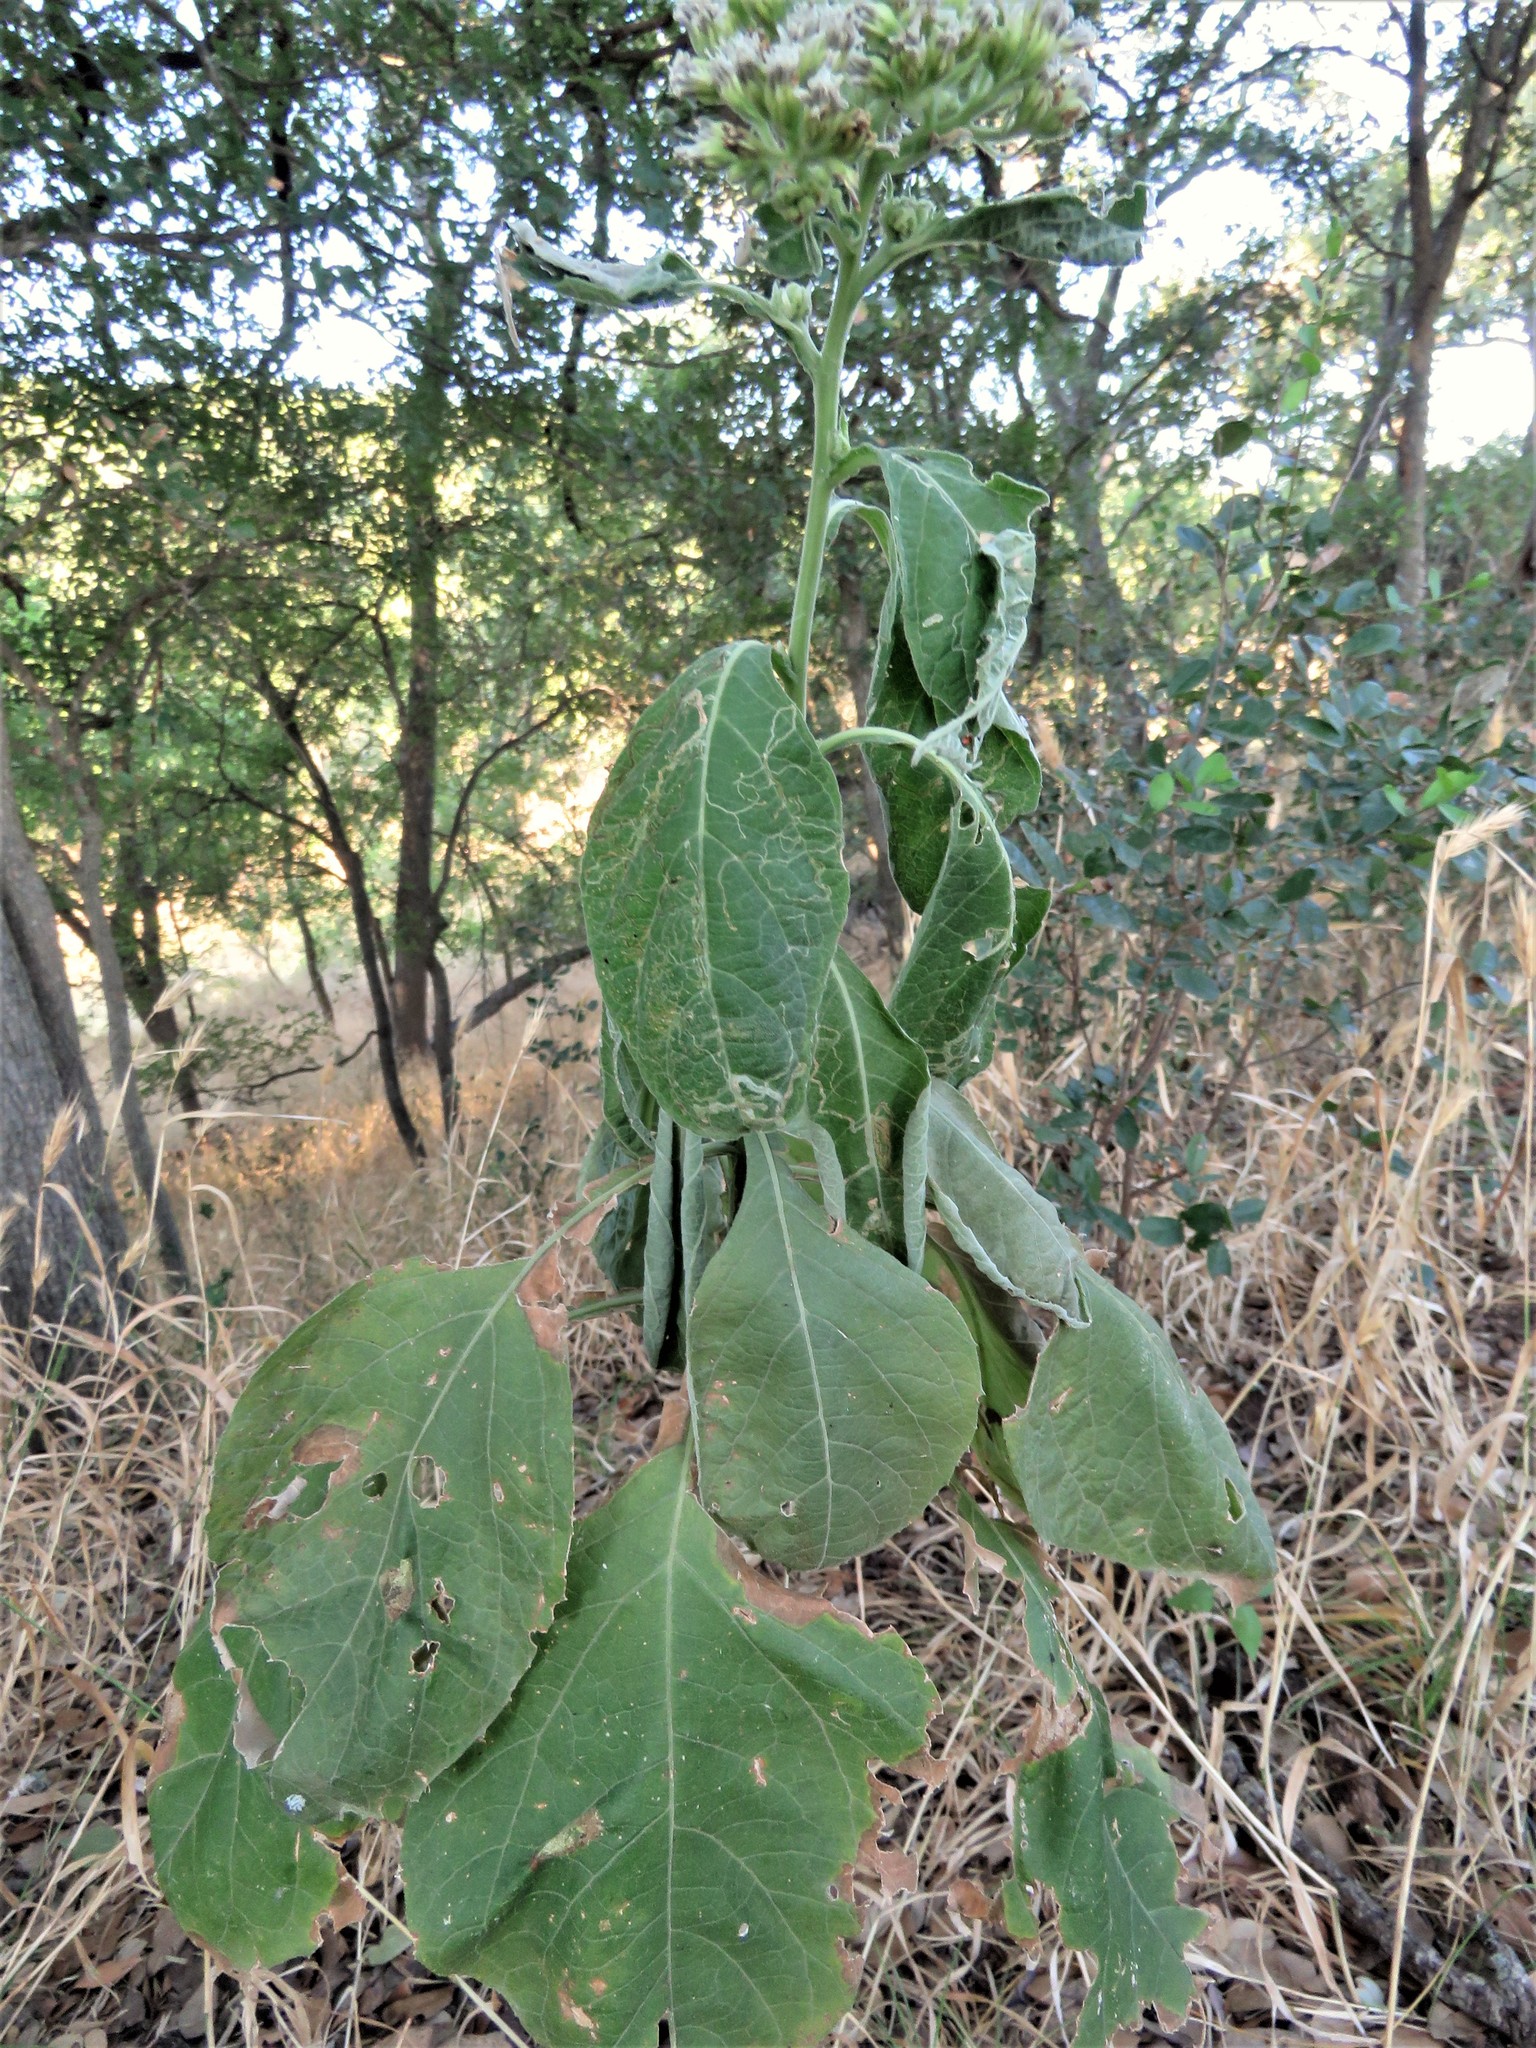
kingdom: Plantae
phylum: Tracheophyta
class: Magnoliopsida
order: Asterales
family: Asteraceae
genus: Verbesina
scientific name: Verbesina virginica
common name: Frostweed
